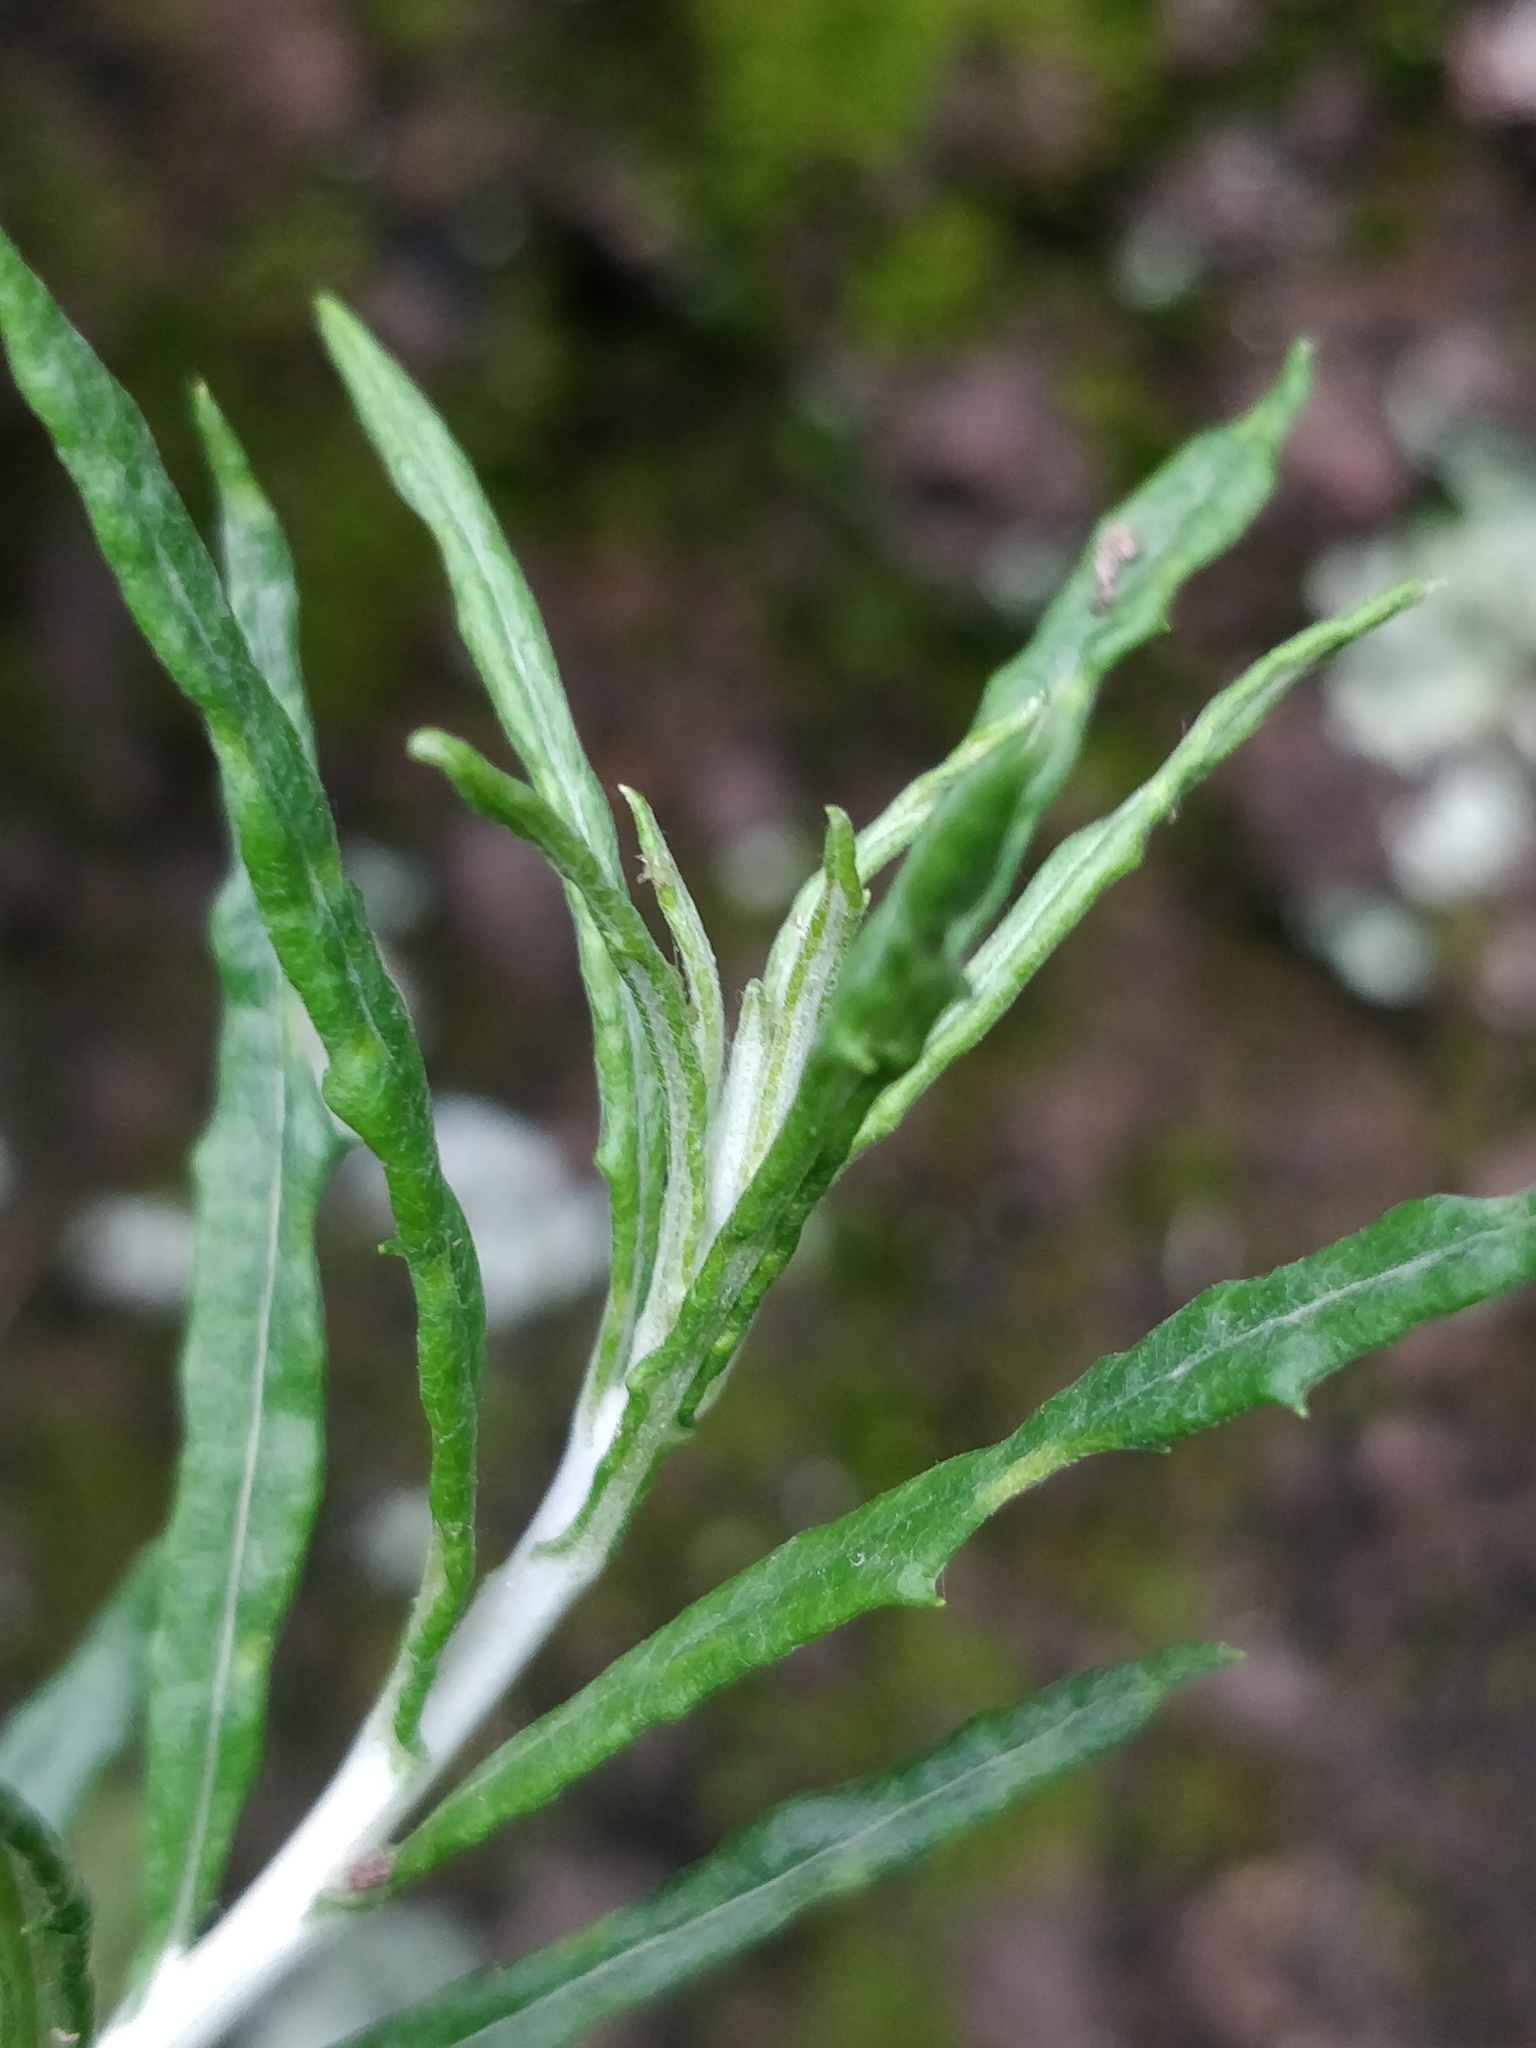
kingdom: Plantae
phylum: Tracheophyta
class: Magnoliopsida
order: Asterales
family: Asteraceae
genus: Phagnalon
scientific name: Phagnalon saxatile
